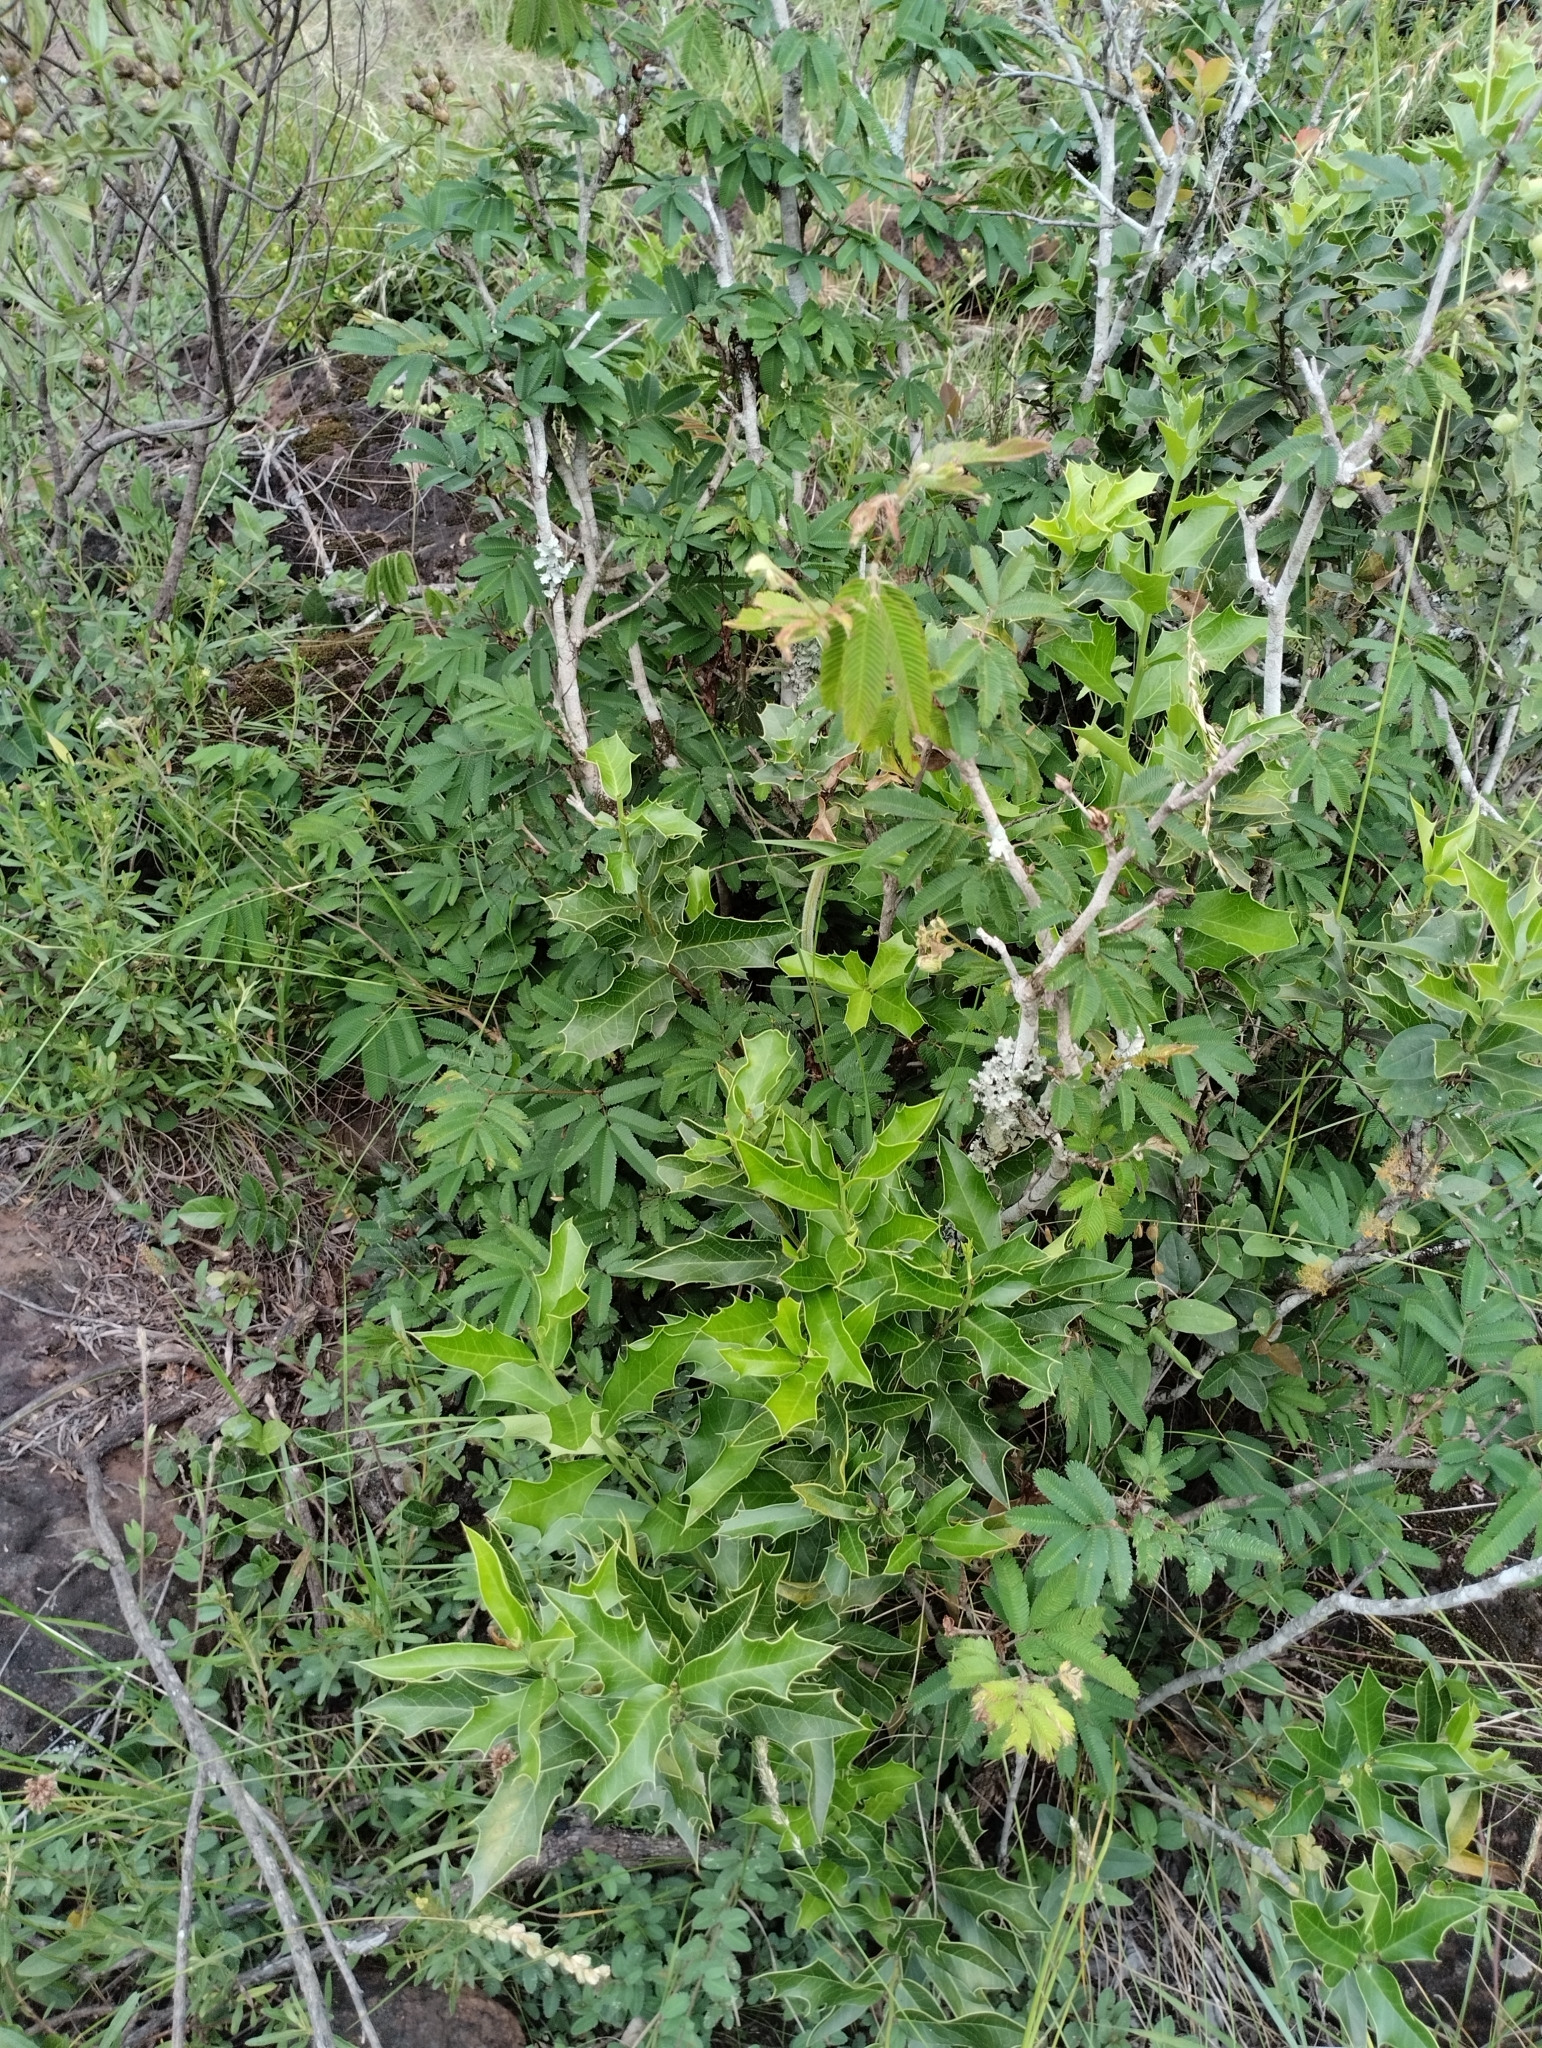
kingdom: Plantae
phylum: Tracheophyta
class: Magnoliopsida
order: Celastrales
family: Celastraceae
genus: Monteverdia
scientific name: Monteverdia
